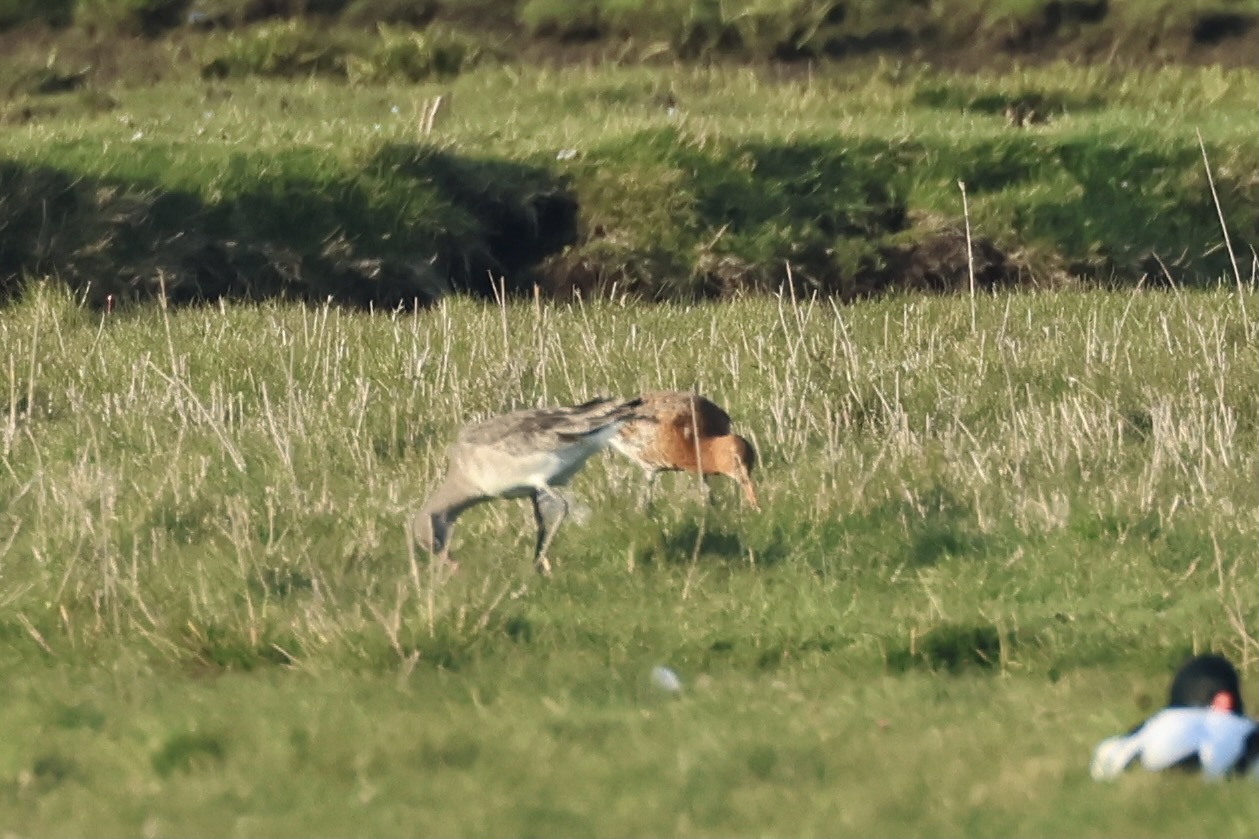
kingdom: Animalia
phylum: Chordata
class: Aves
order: Charadriiformes
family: Scolopacidae
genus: Limosa
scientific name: Limosa limosa
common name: Black-tailed godwit
